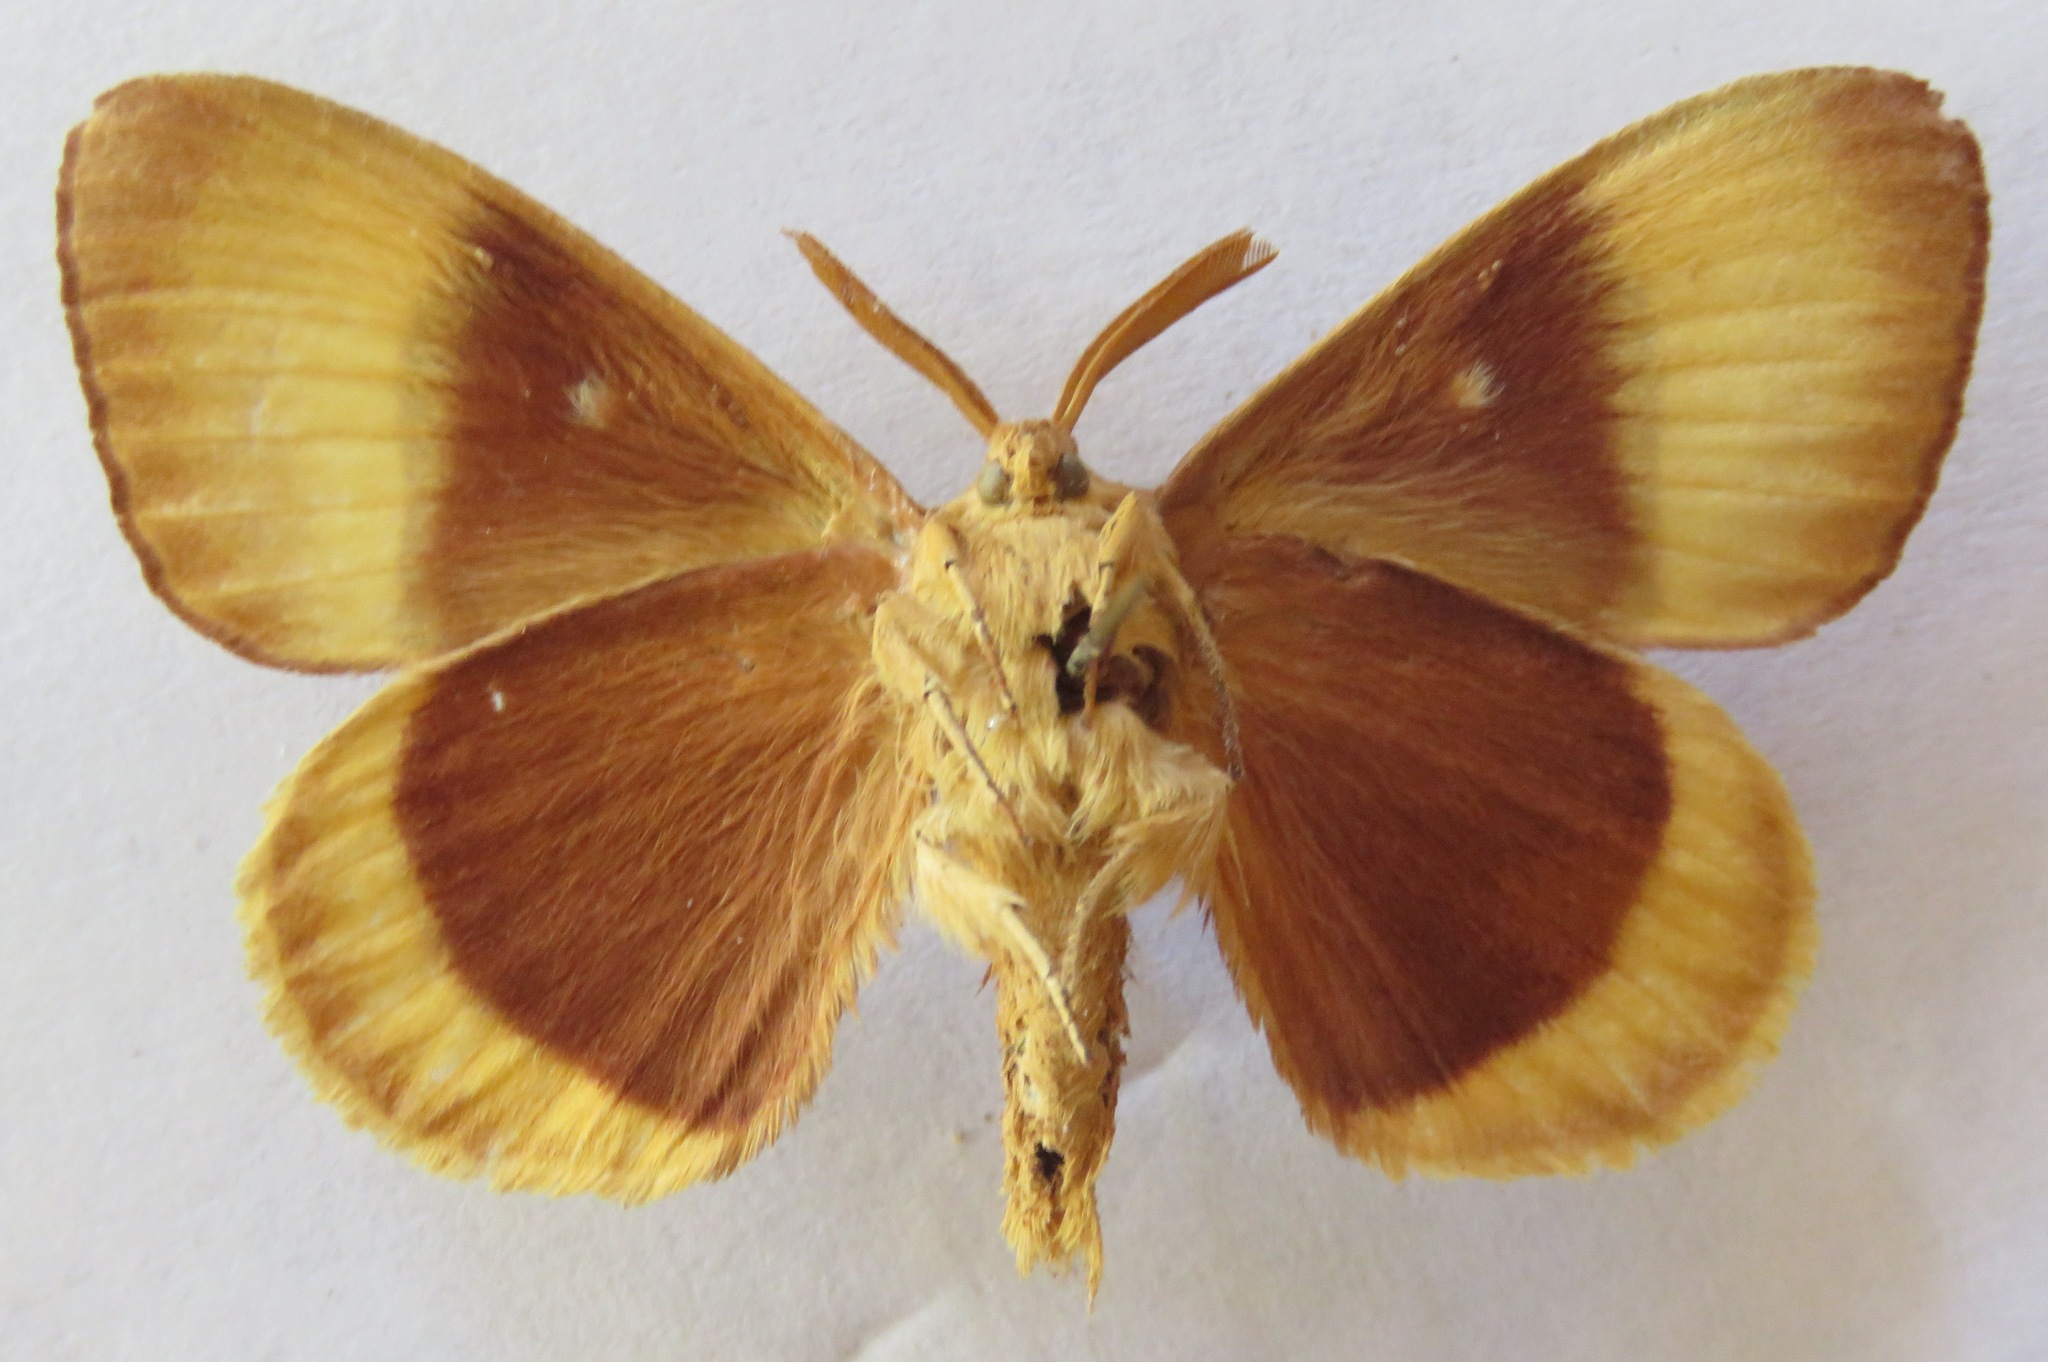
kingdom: Animalia
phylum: Arthropoda
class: Insecta
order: Lepidoptera
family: Lasiocampidae
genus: Lasiocampa
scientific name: Lasiocampa quercus
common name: Oak eggar
